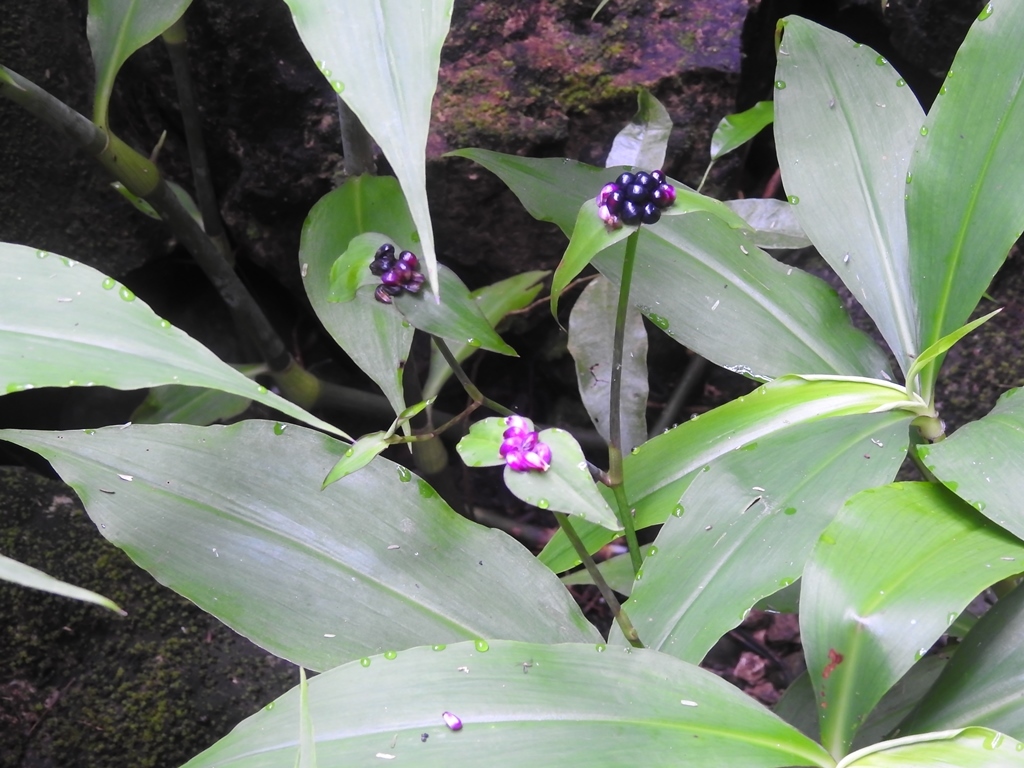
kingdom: Plantae
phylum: Tracheophyta
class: Liliopsida
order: Commelinales
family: Commelinaceae
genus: Tradescantia
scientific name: Tradescantia zanonia
